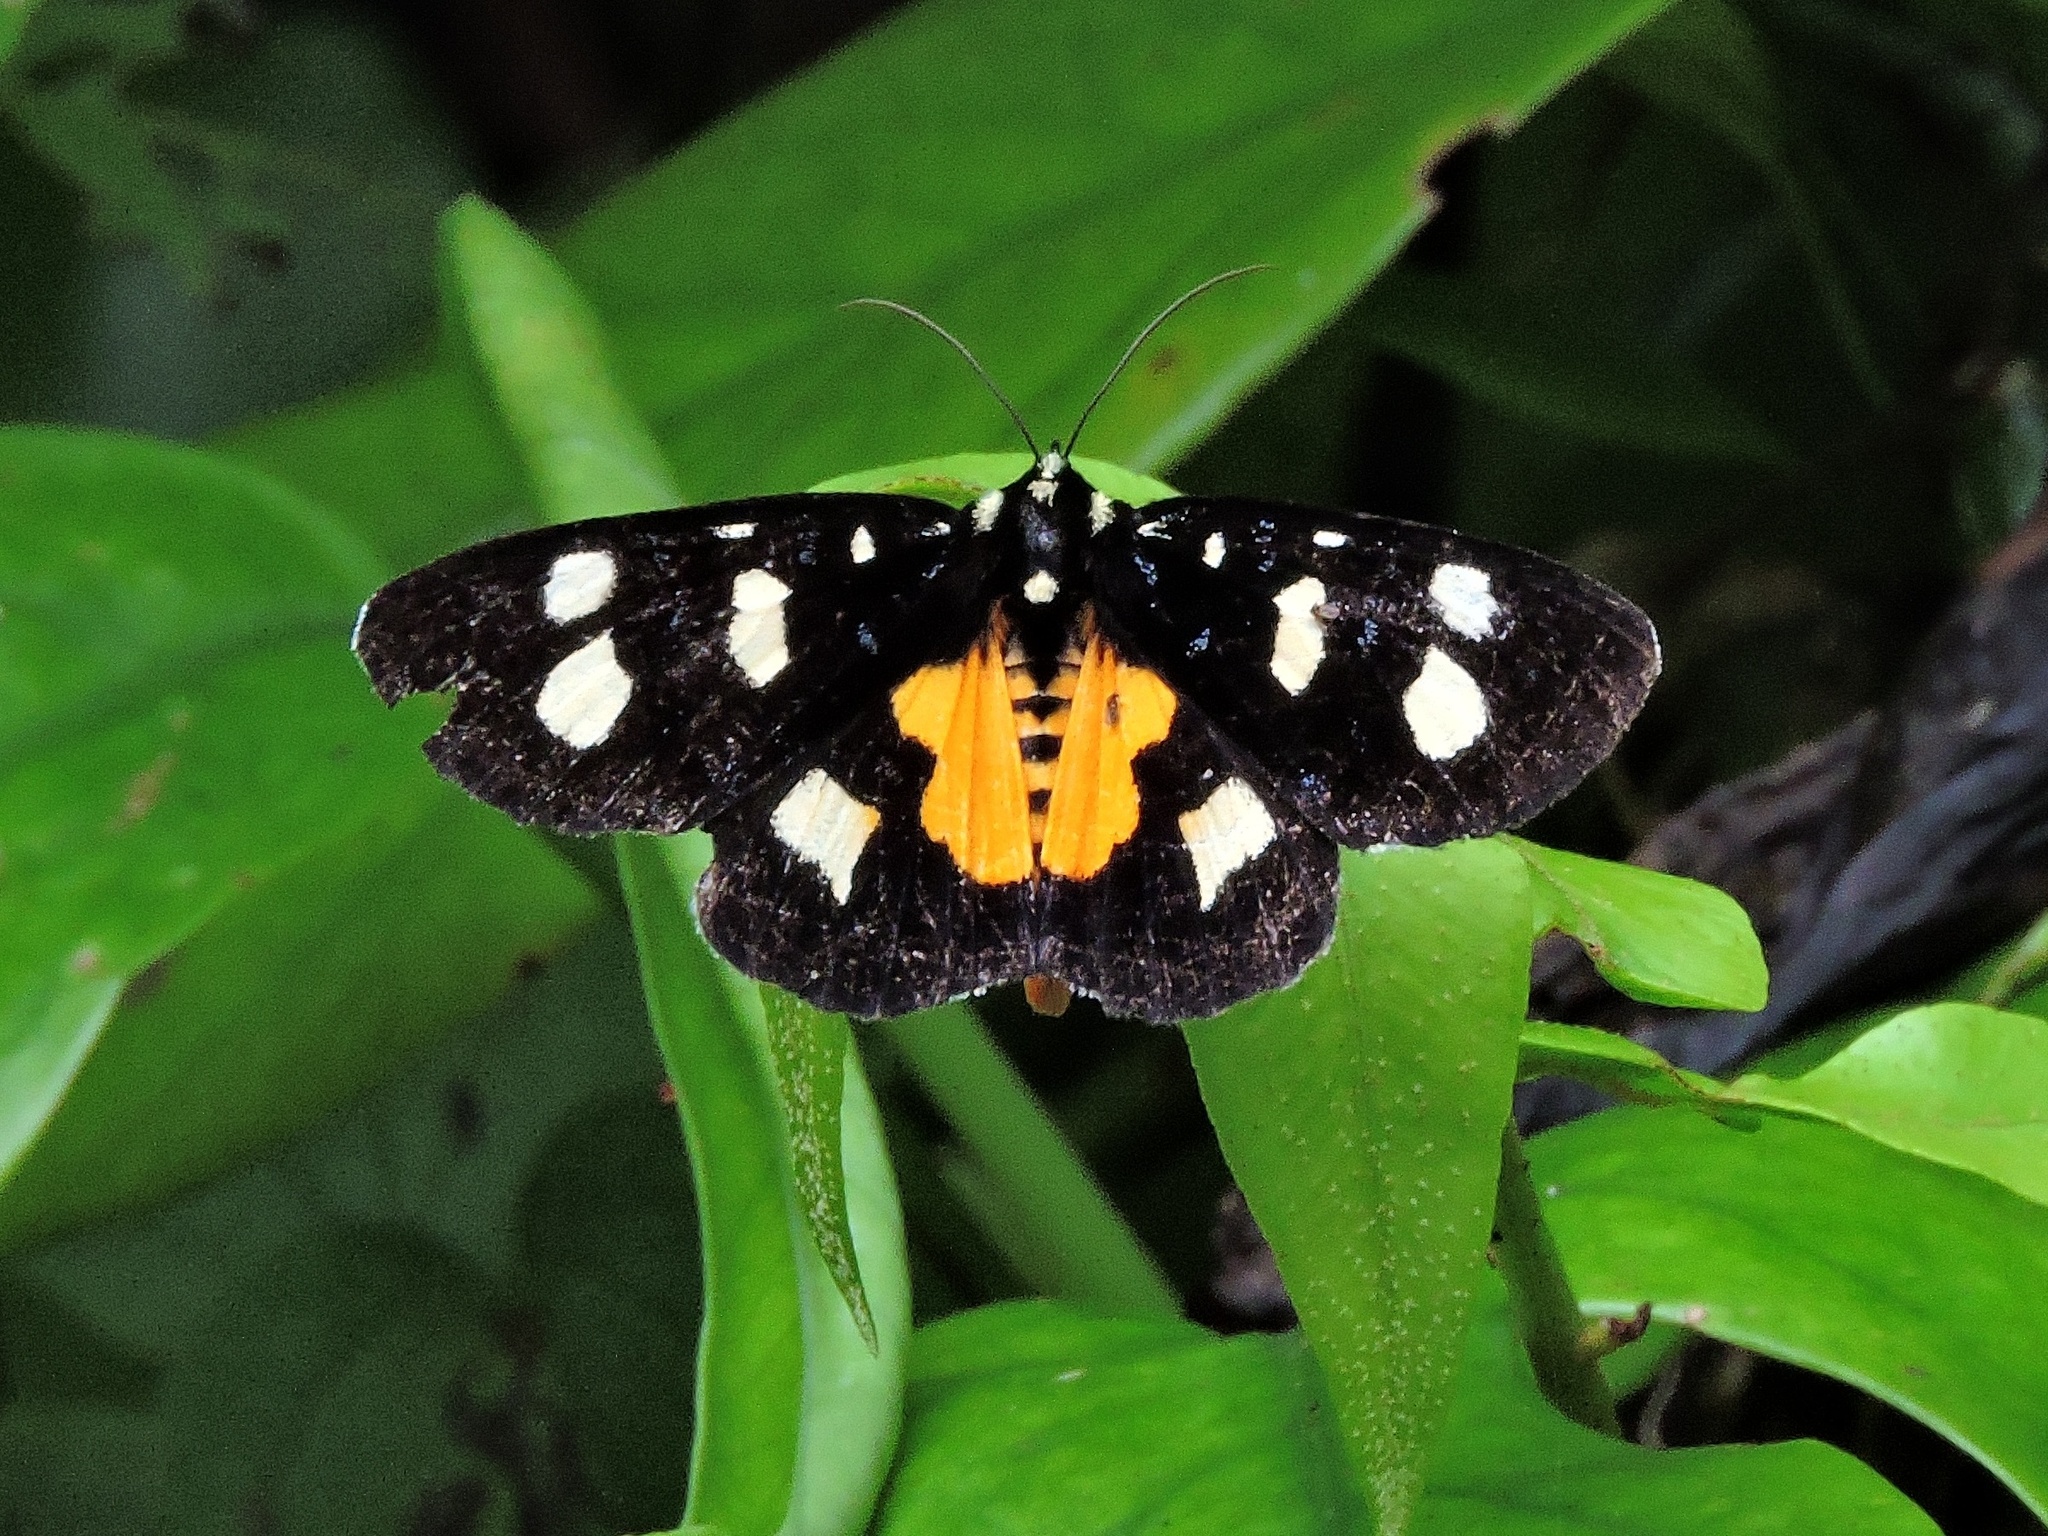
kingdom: Animalia
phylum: Arthropoda
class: Insecta
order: Lepidoptera
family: Noctuidae
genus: Mimeusemia
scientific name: Mimeusemia vilemani
